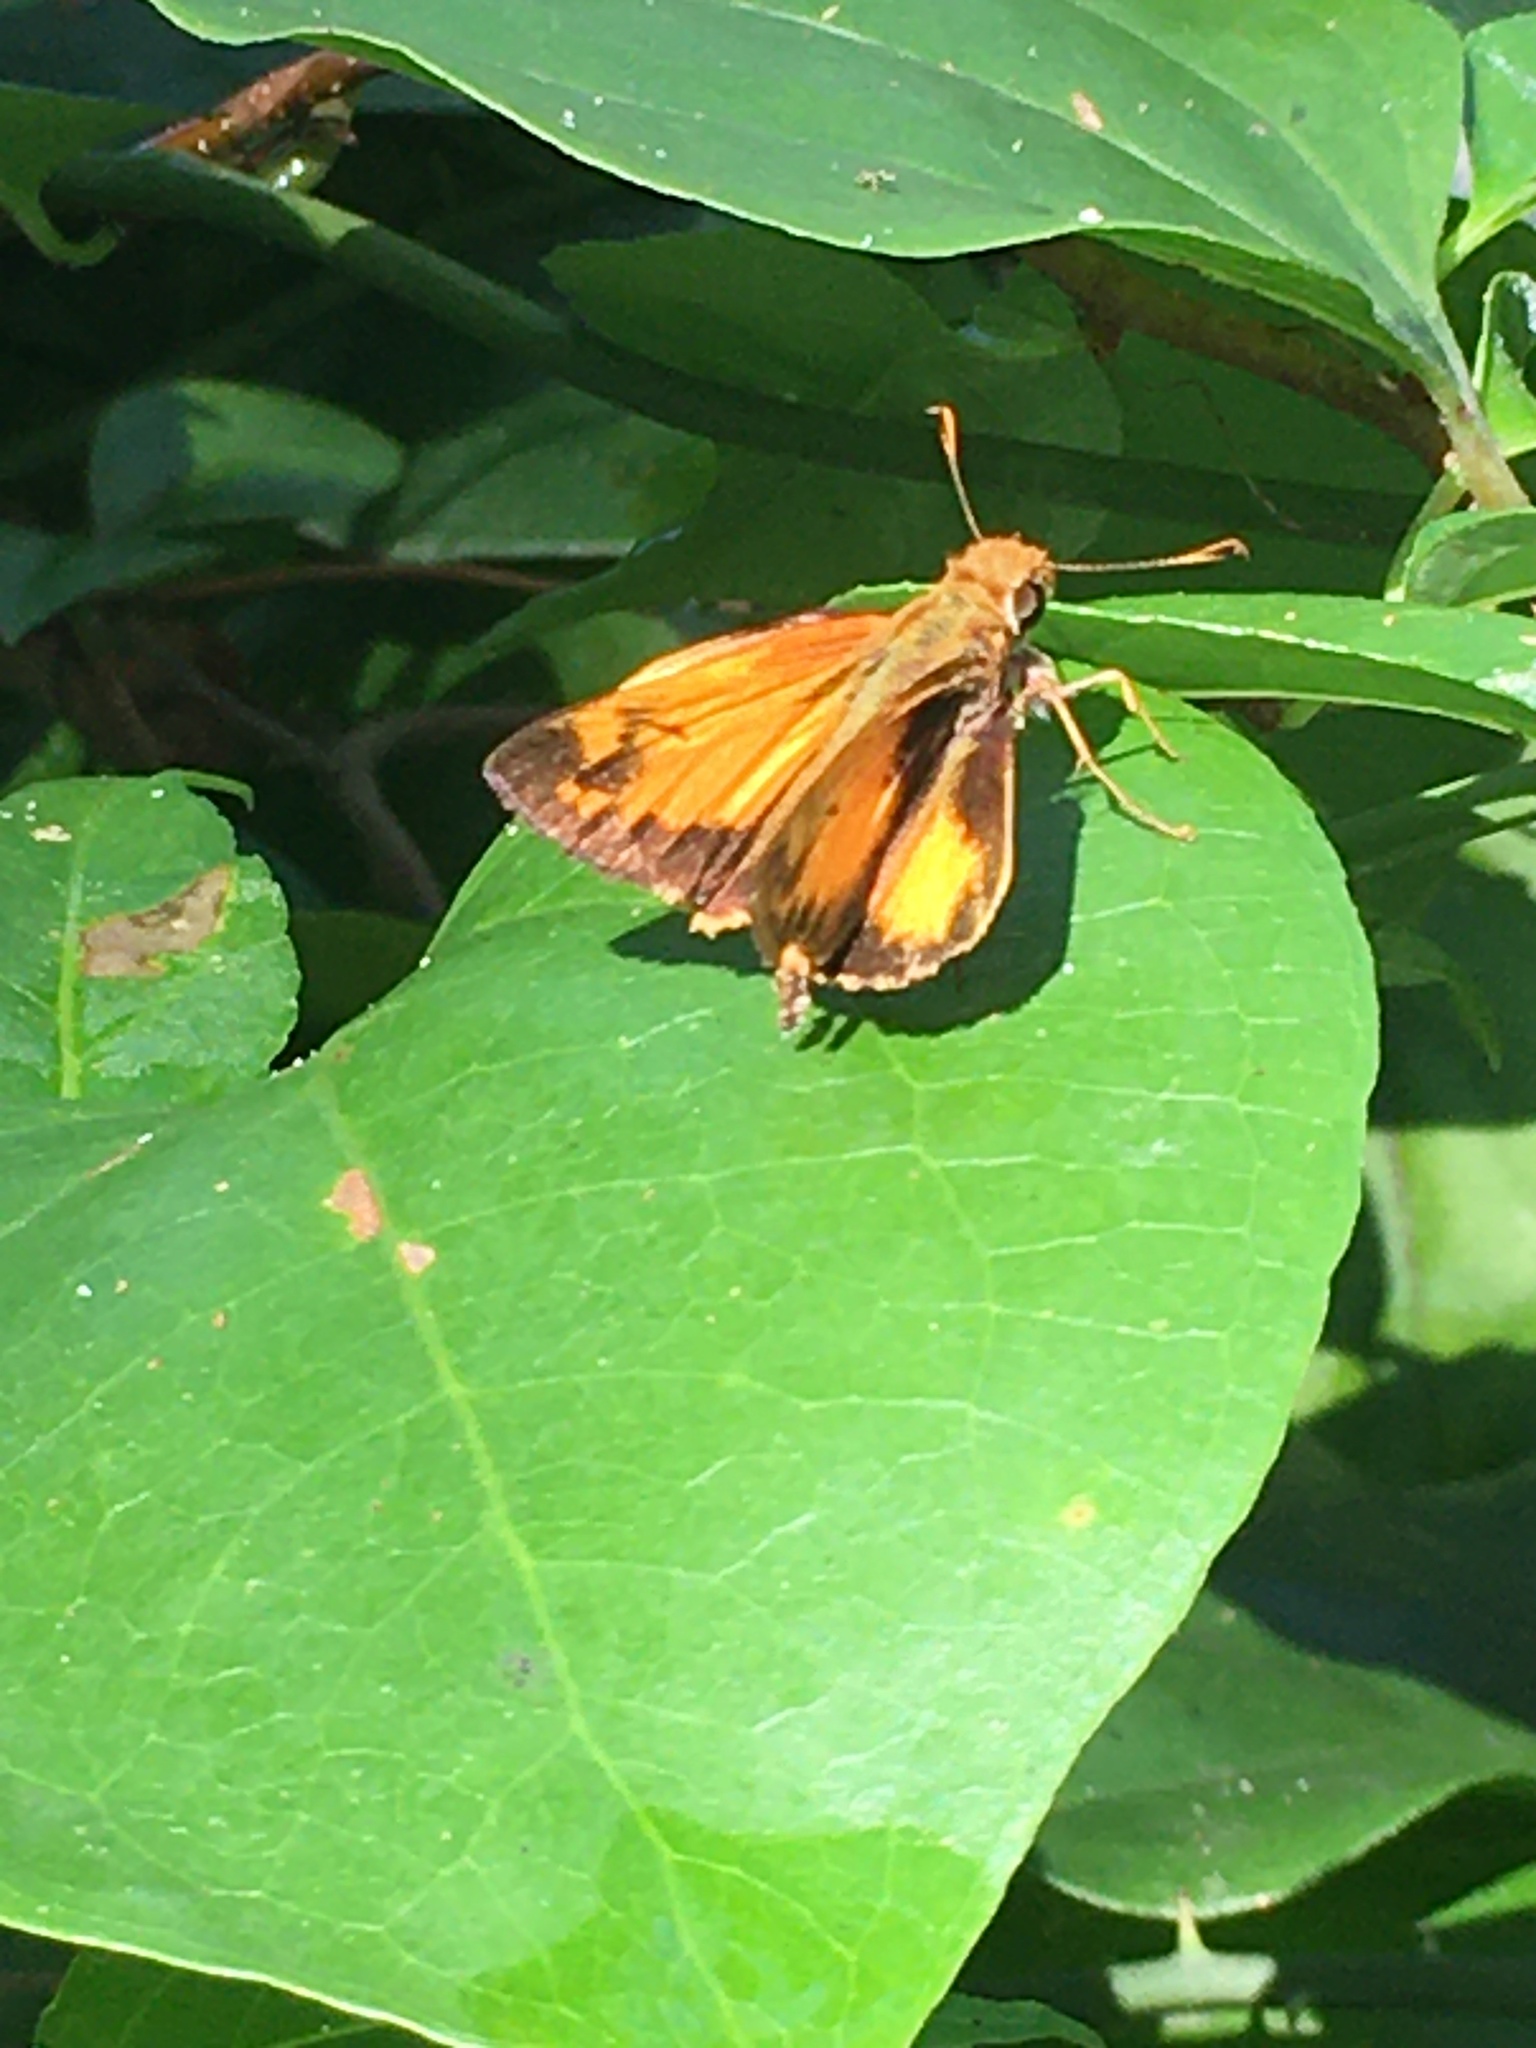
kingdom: Animalia
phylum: Arthropoda
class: Insecta
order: Lepidoptera
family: Hesperiidae
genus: Lon
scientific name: Lon zabulon
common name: Zabulon skipper
